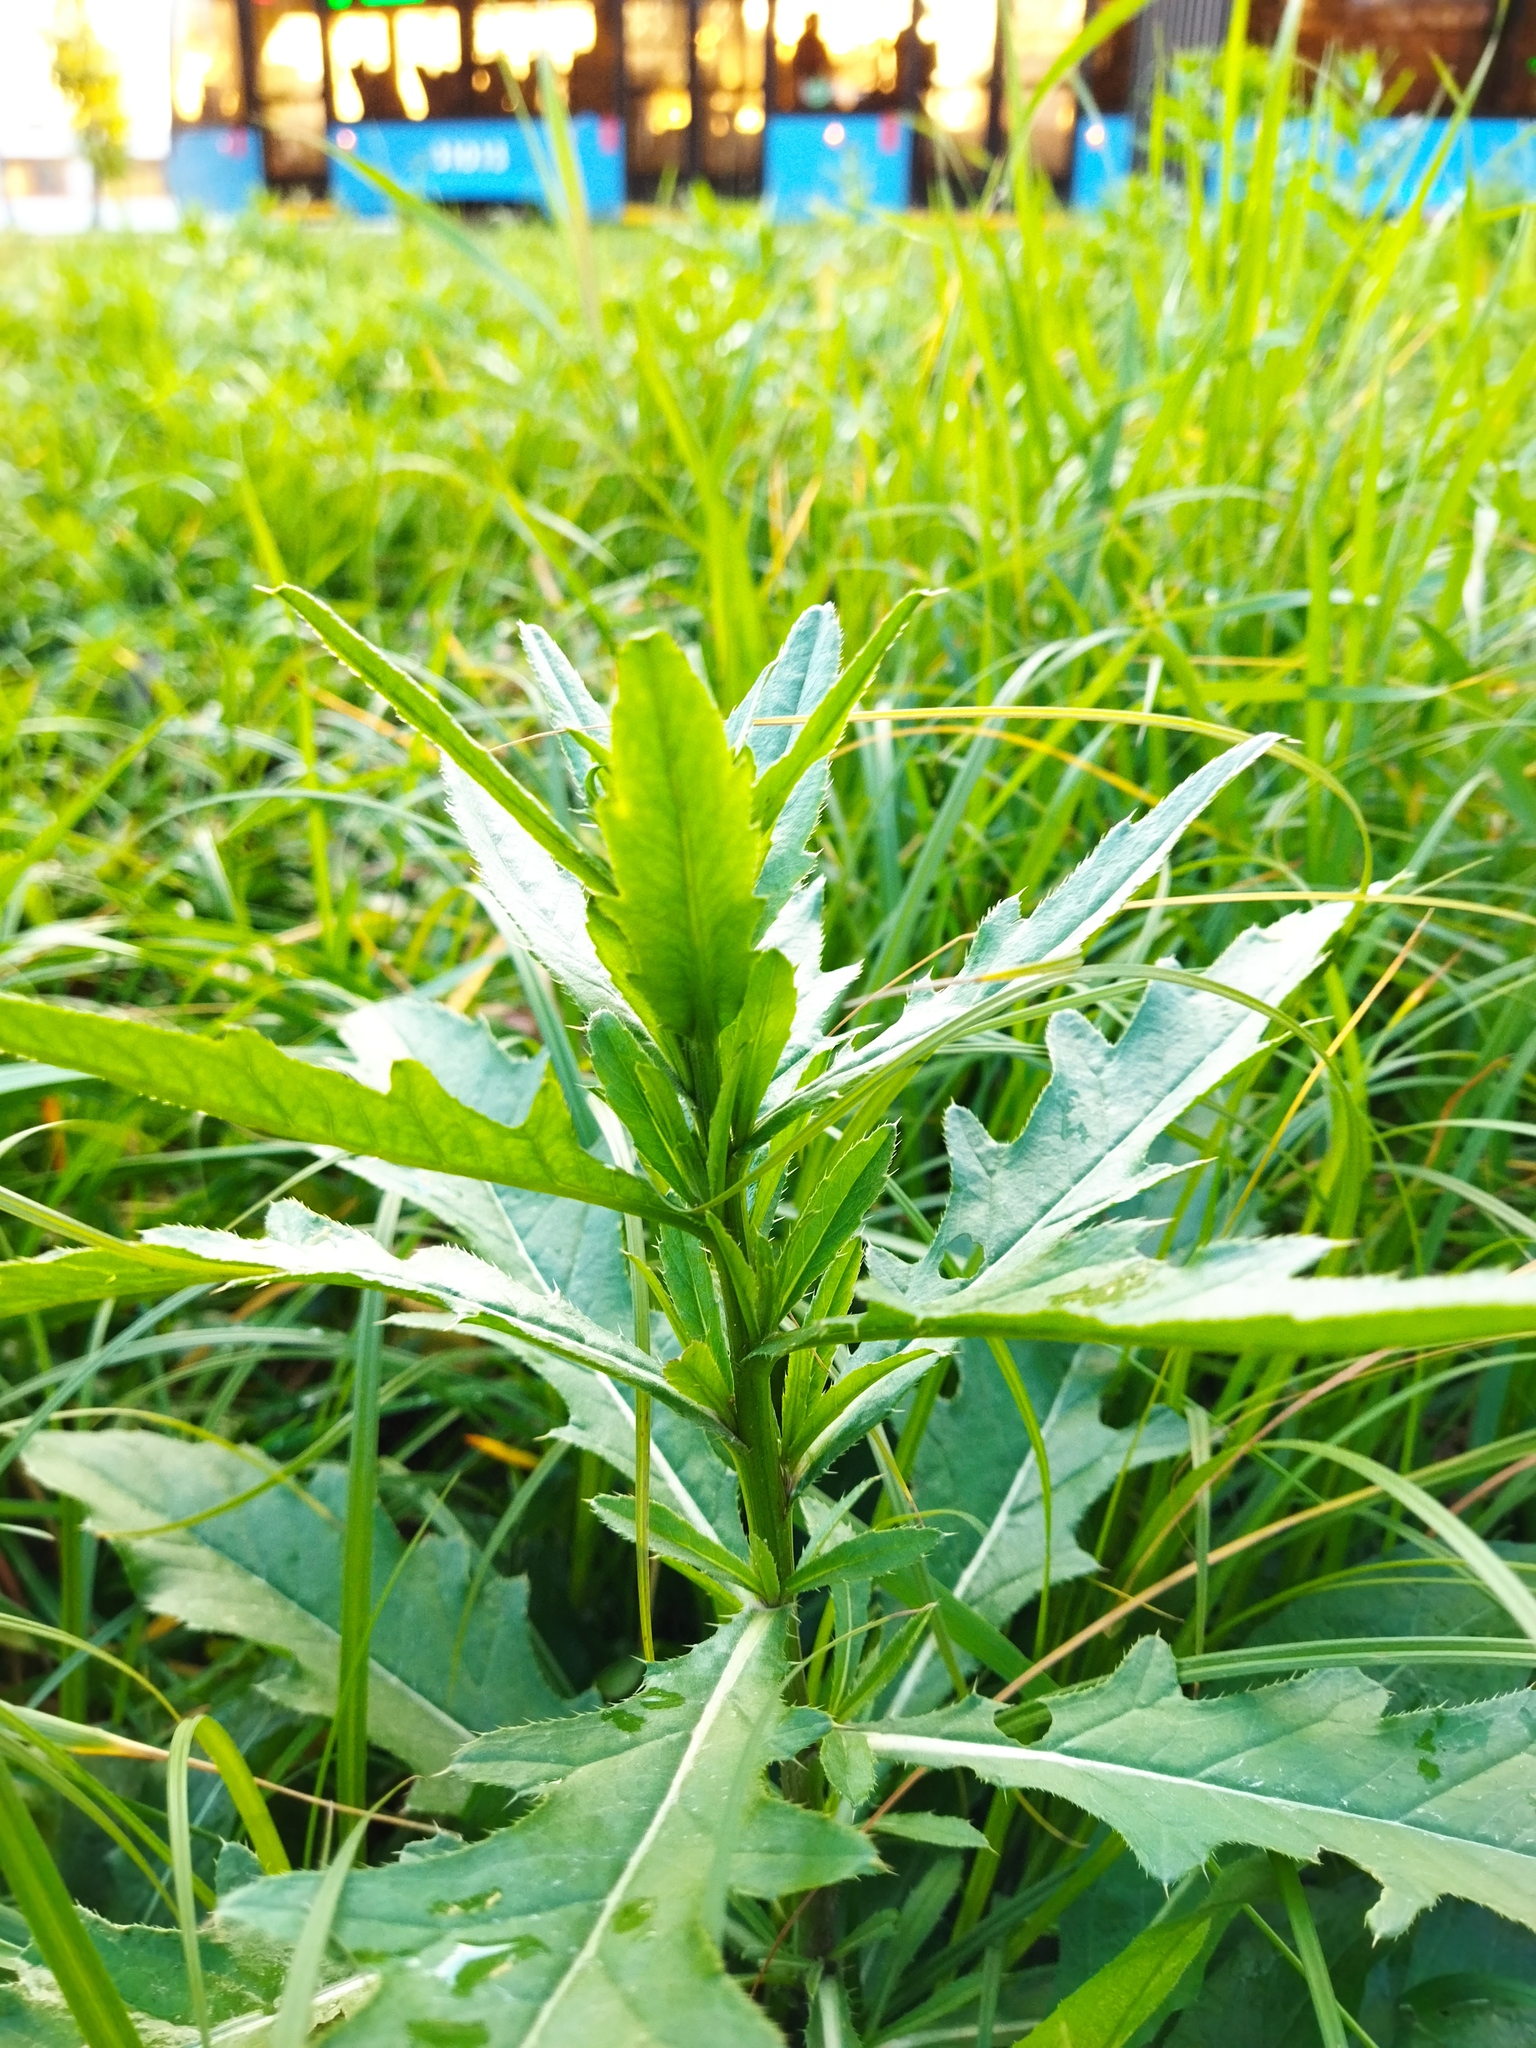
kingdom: Plantae
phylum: Tracheophyta
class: Magnoliopsida
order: Asterales
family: Asteraceae
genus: Cirsium
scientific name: Cirsium arvense
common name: Creeping thistle
